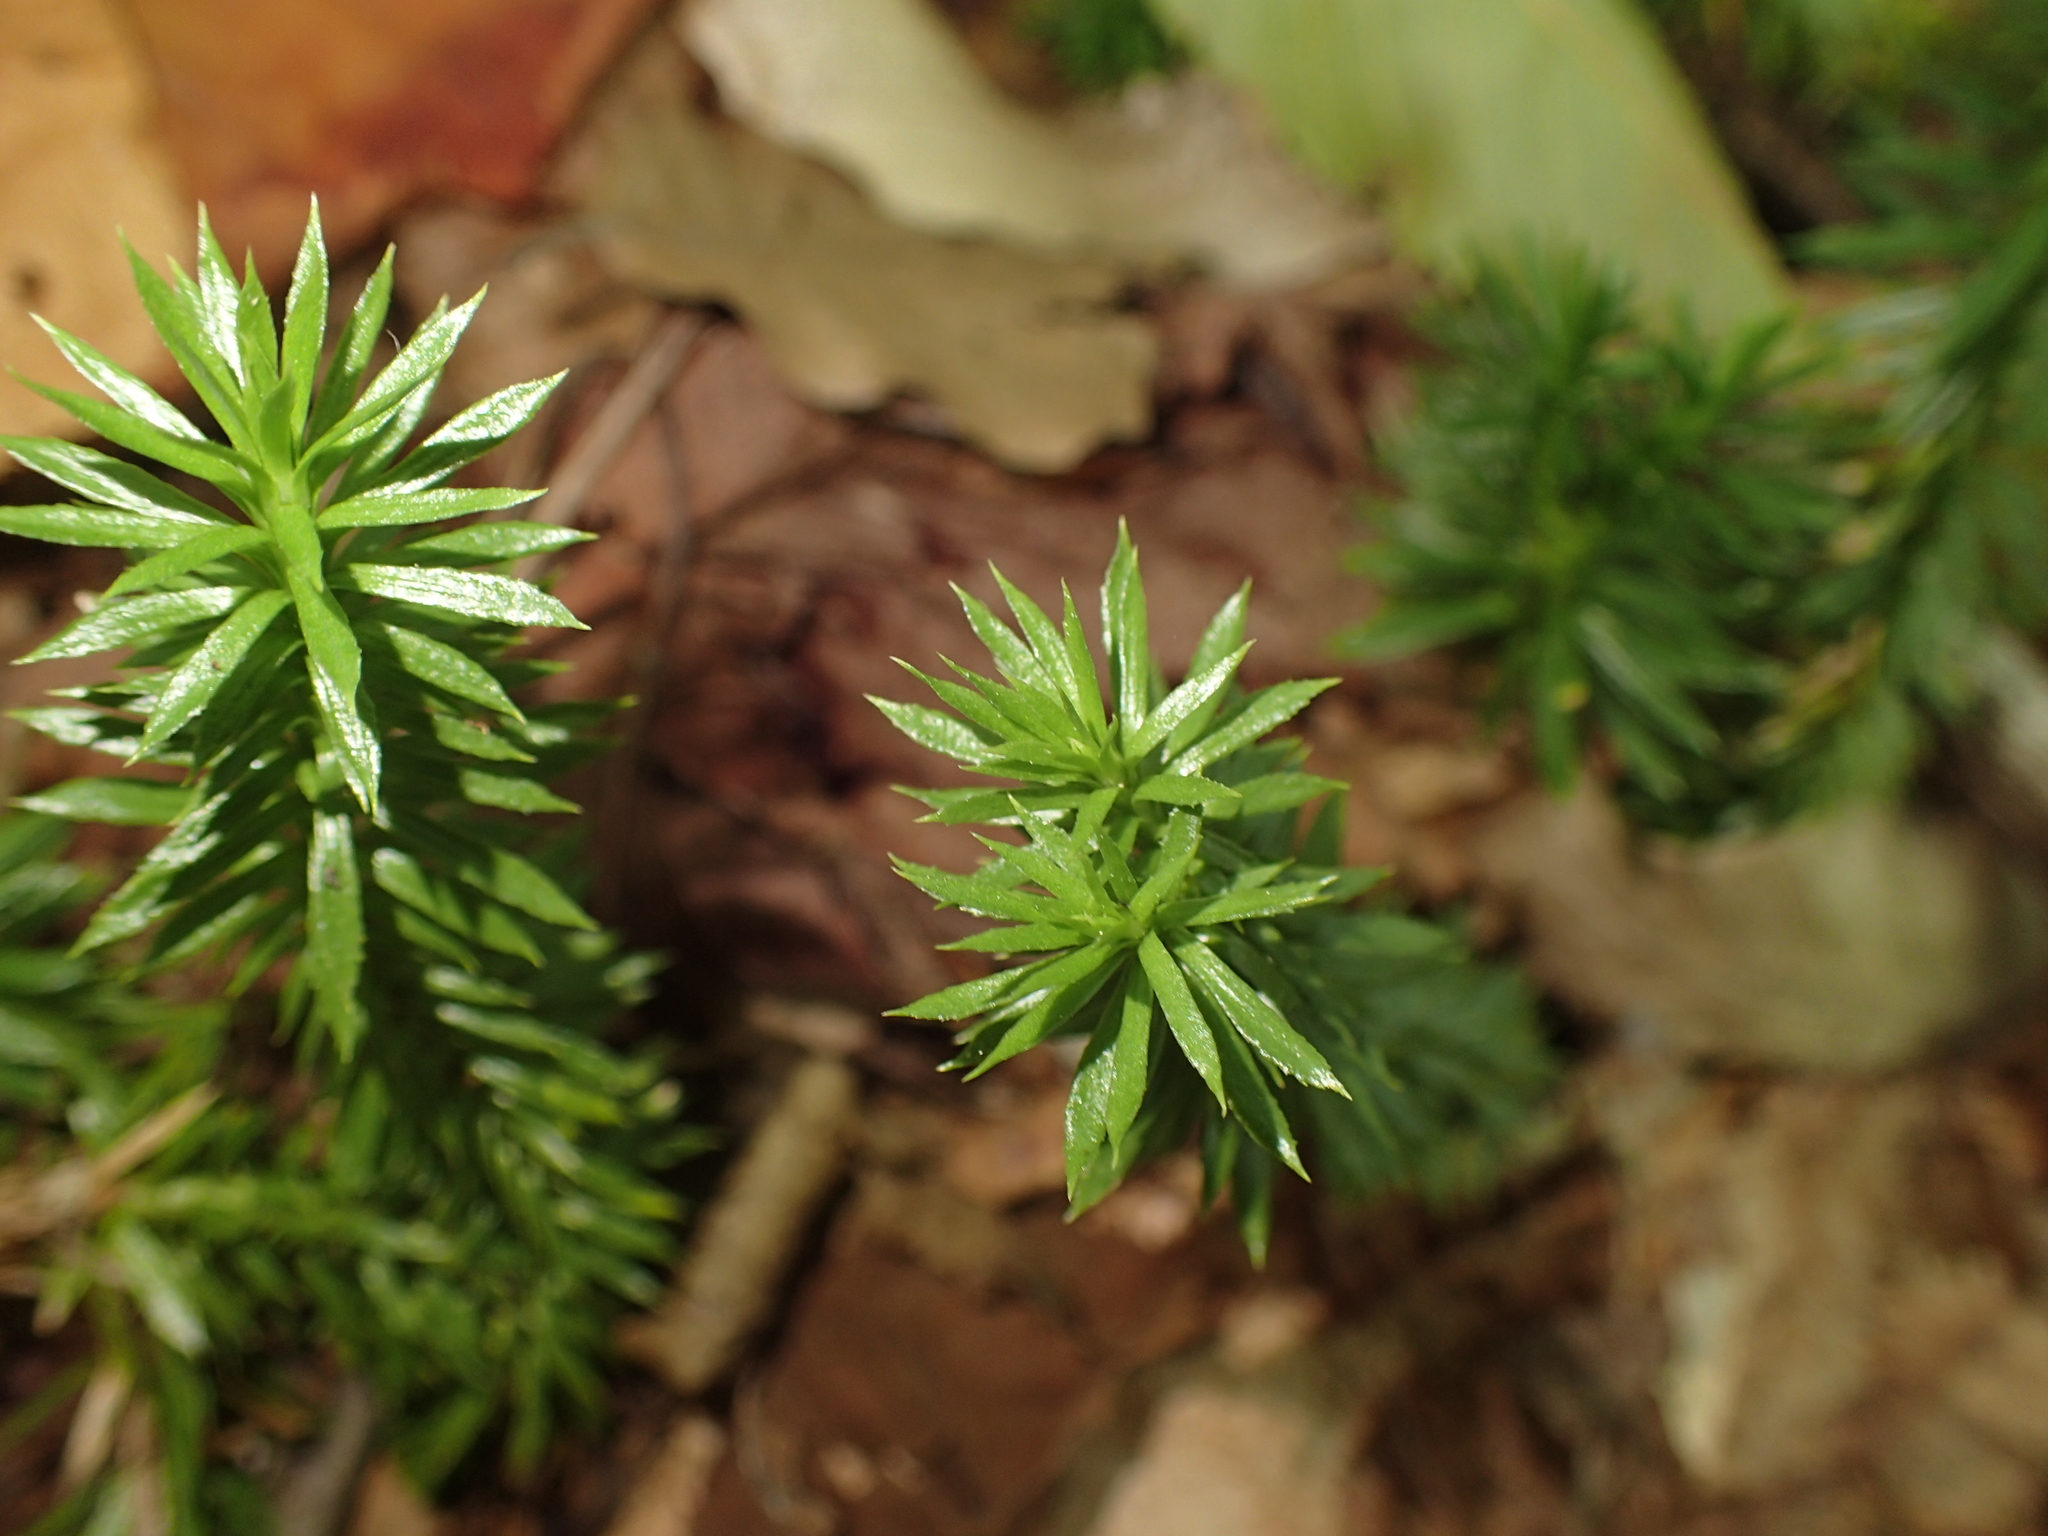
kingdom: Plantae
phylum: Tracheophyta
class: Lycopodiopsida
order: Lycopodiales
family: Lycopodiaceae
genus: Huperzia
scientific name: Huperzia lucidula
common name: Shining clubmoss
